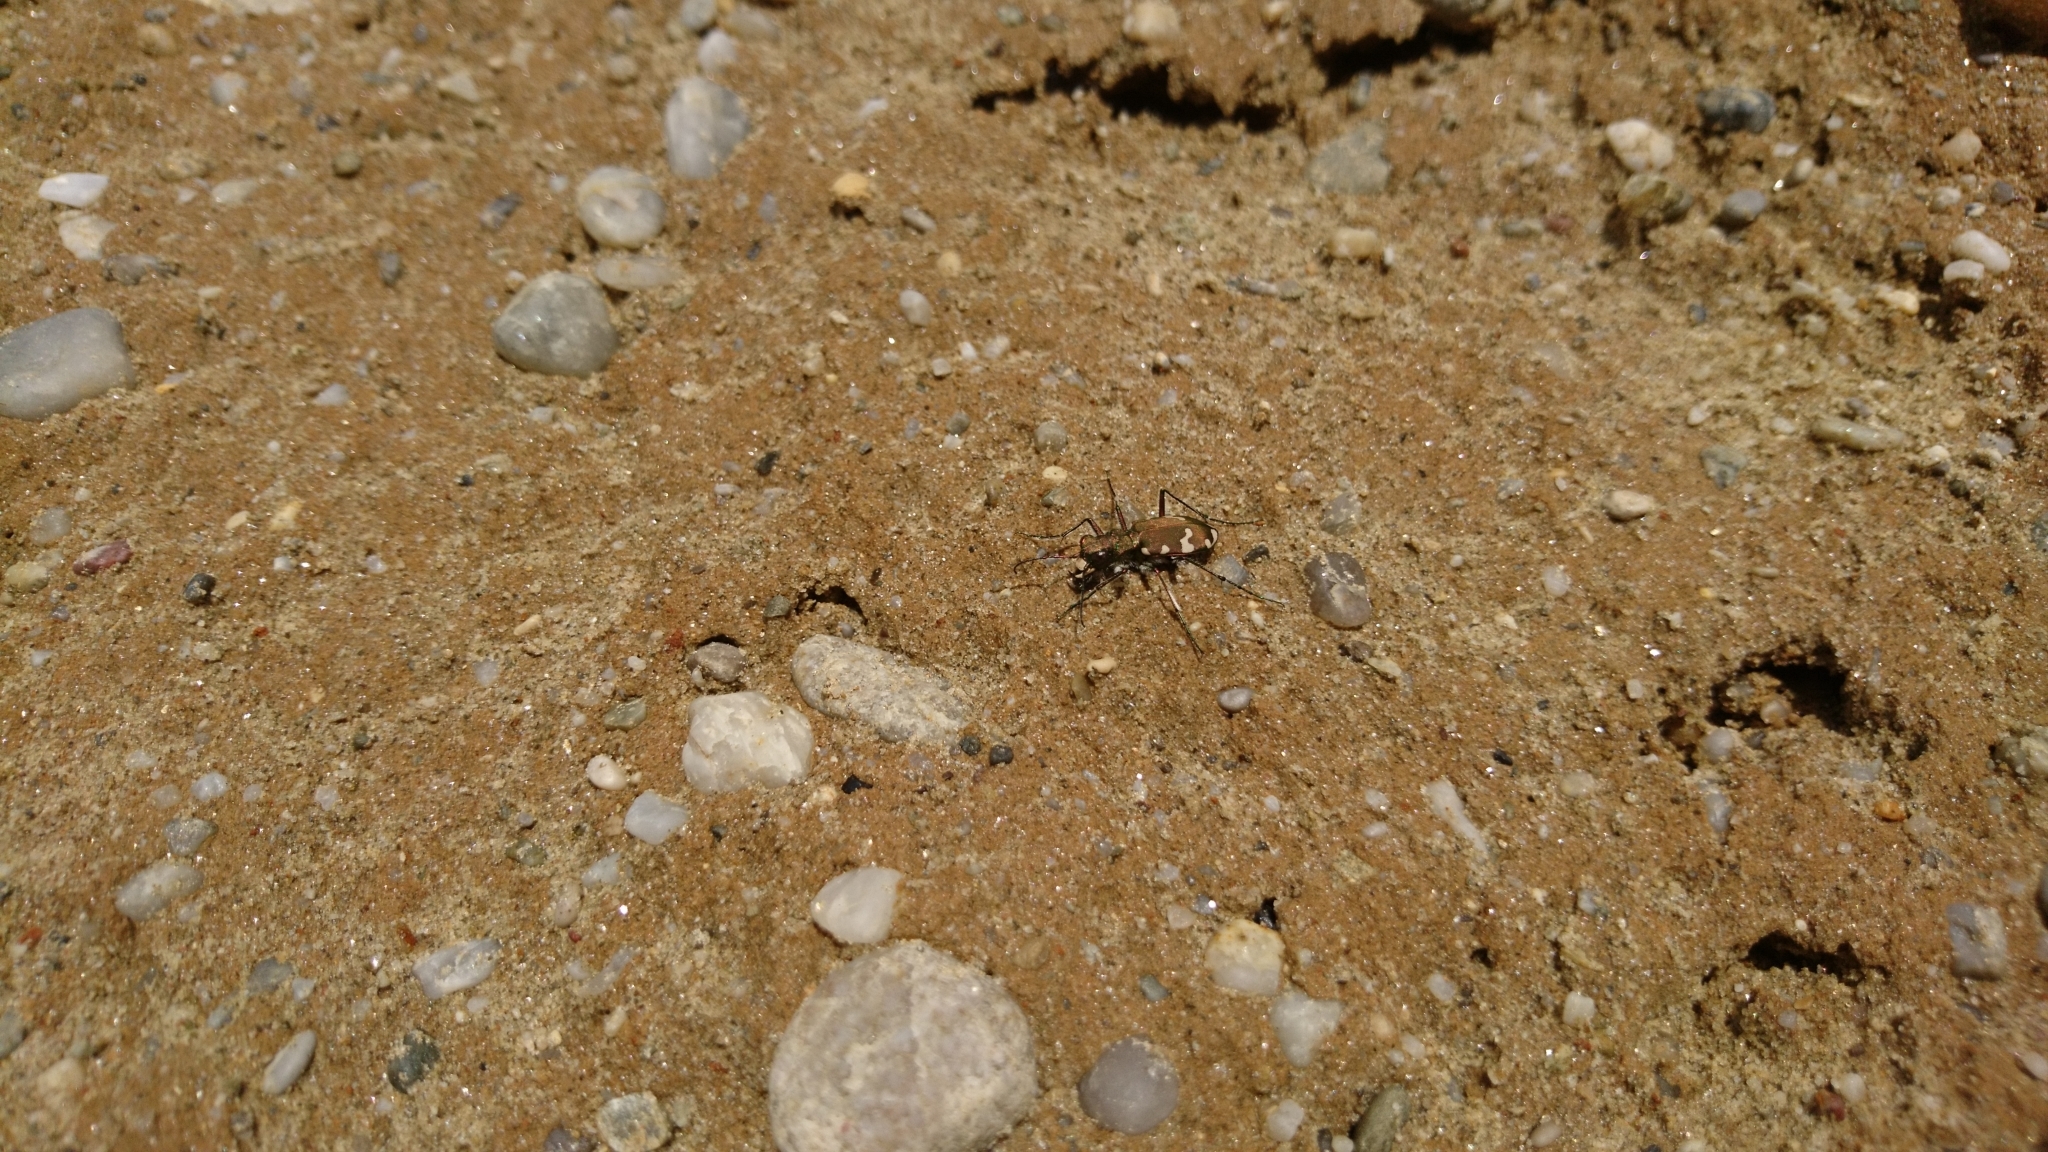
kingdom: Animalia
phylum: Arthropoda
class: Insecta
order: Coleoptera
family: Carabidae
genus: Cicindela
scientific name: Cicindela sylvicola
